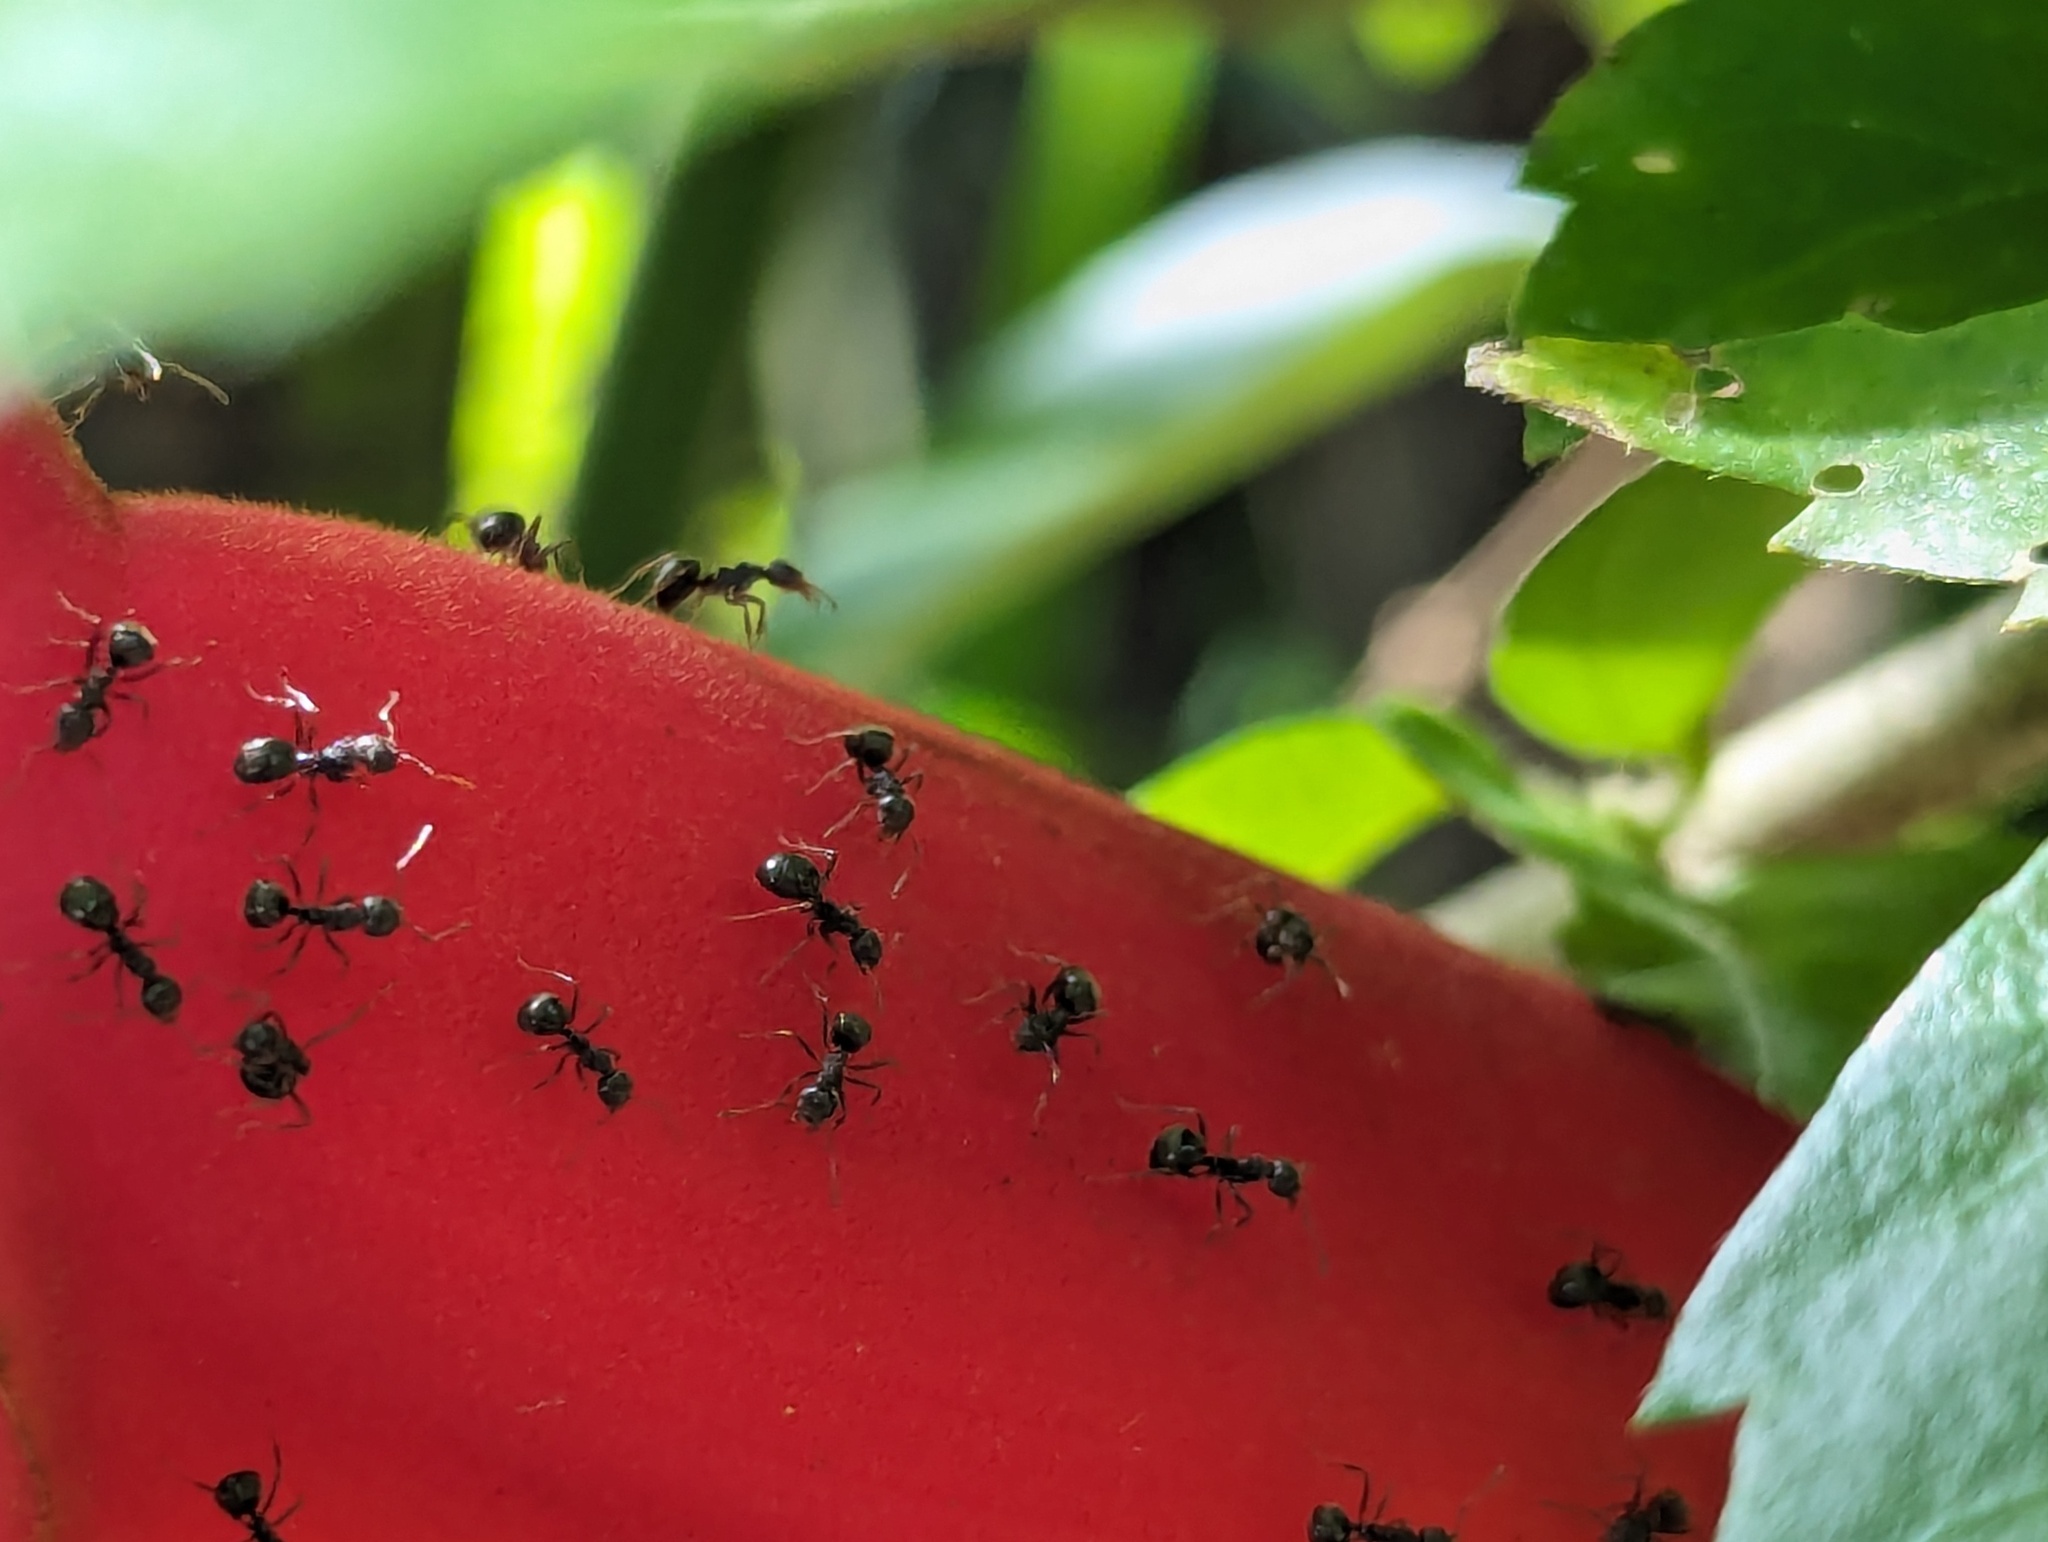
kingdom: Animalia
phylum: Arthropoda
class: Insecta
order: Hymenoptera
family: Formicidae
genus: Dolichoderus
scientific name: Dolichoderus thoracicus
